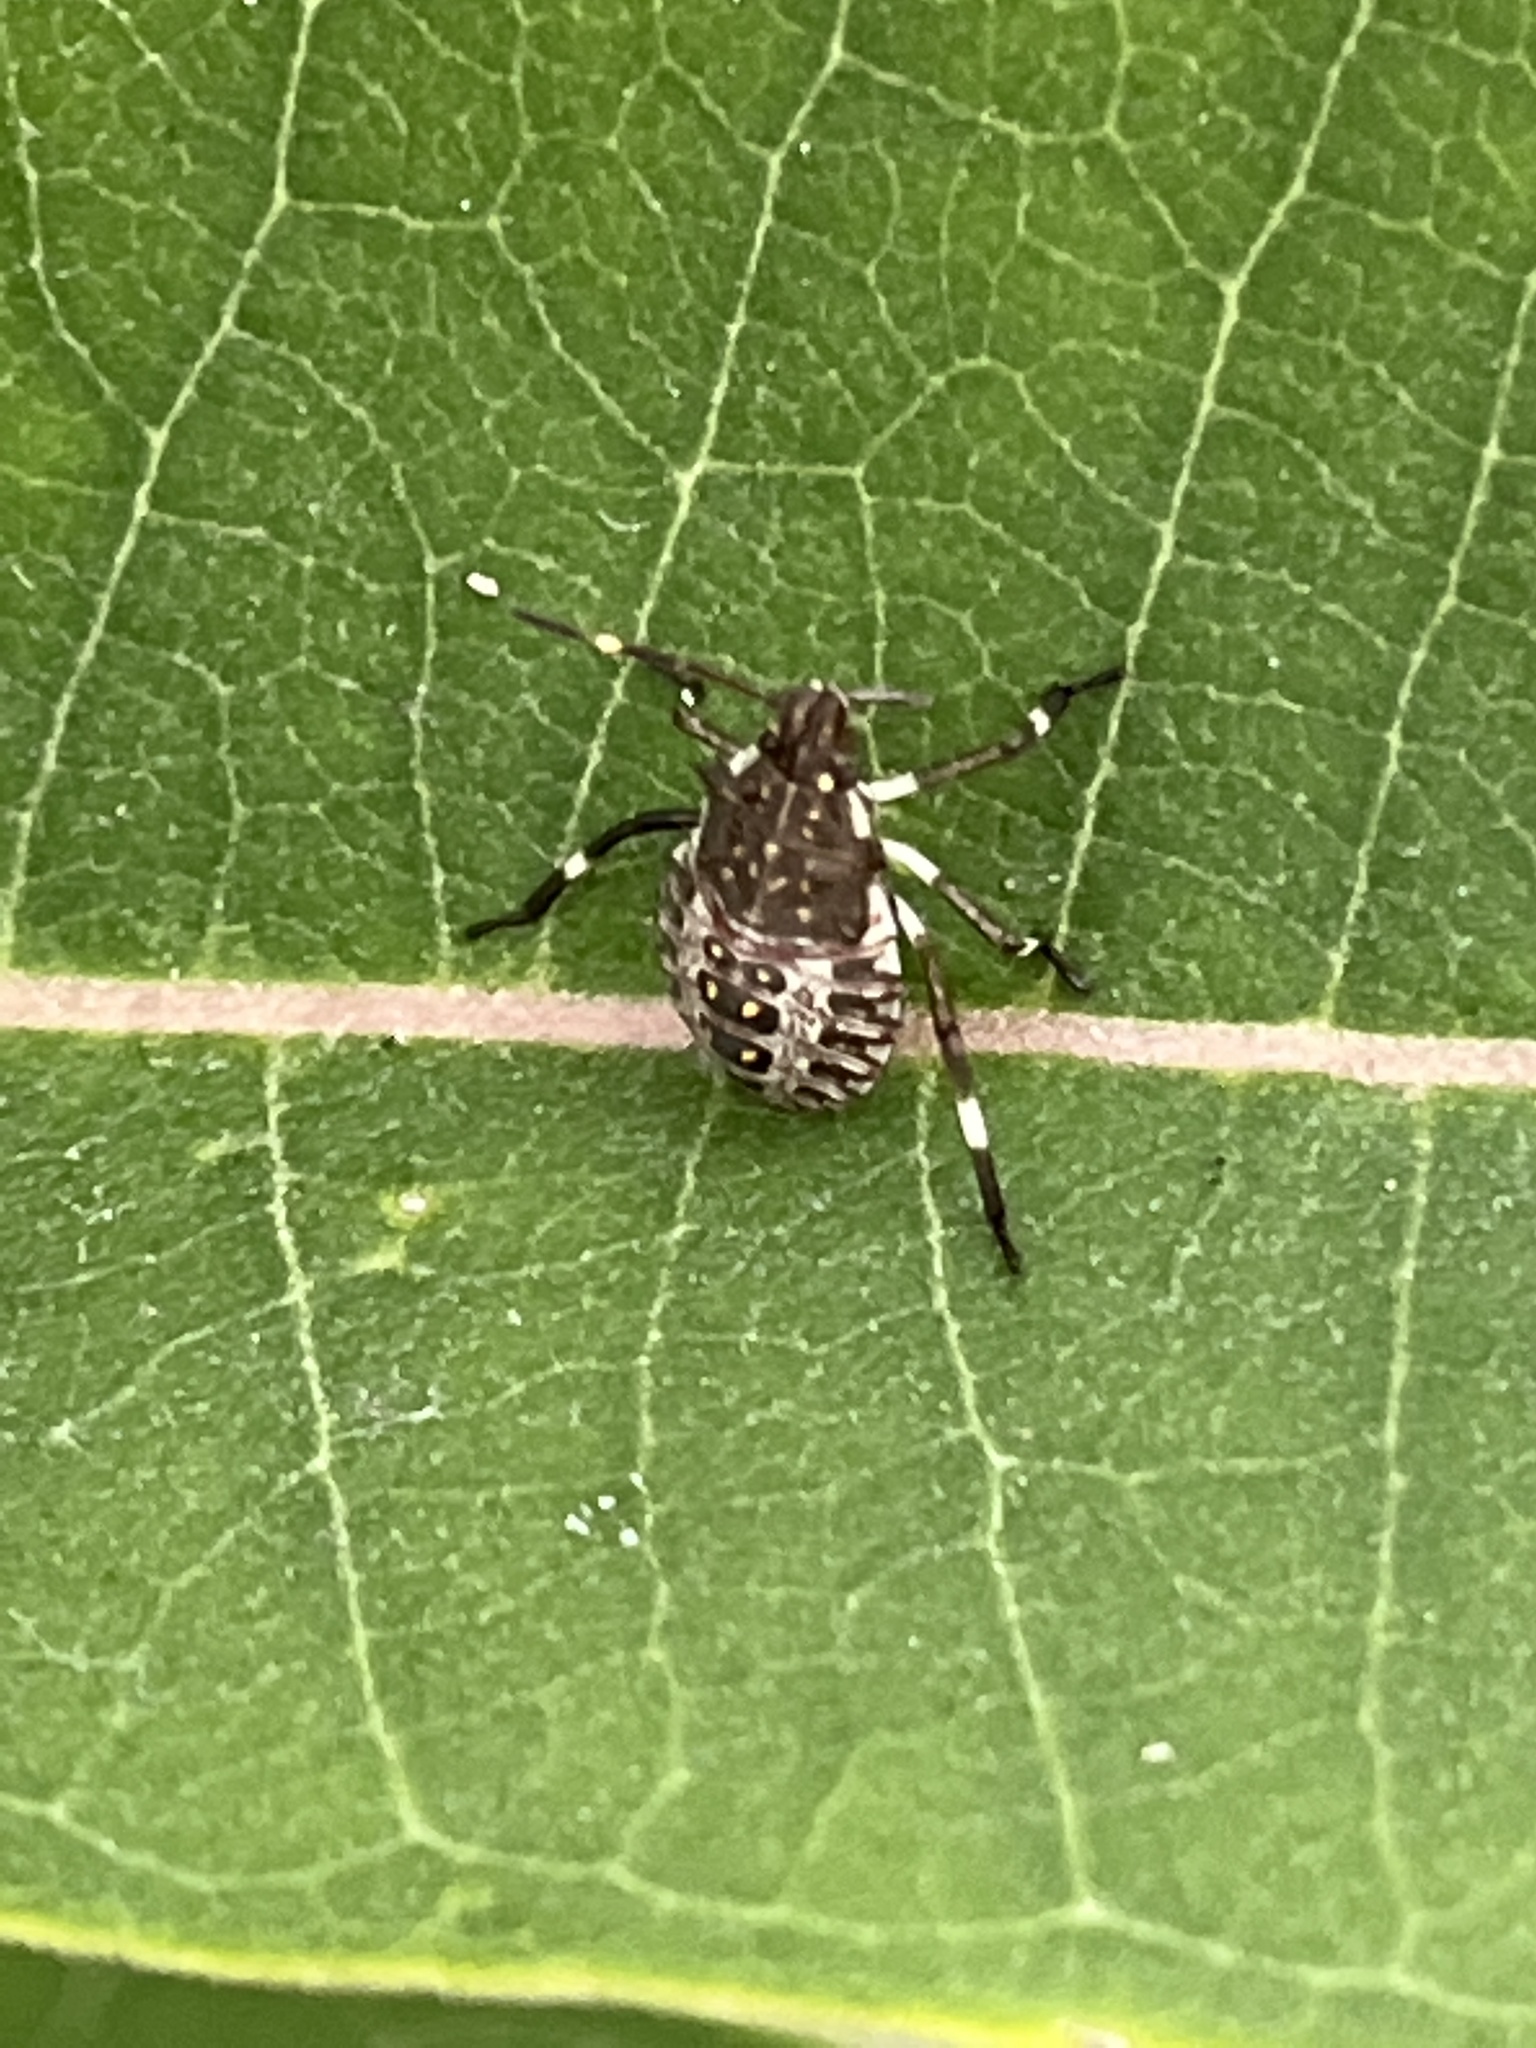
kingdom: Animalia
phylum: Arthropoda
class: Insecta
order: Hemiptera
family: Pentatomidae
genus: Halyomorpha
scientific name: Halyomorpha halys
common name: Brown marmorated stink bug
